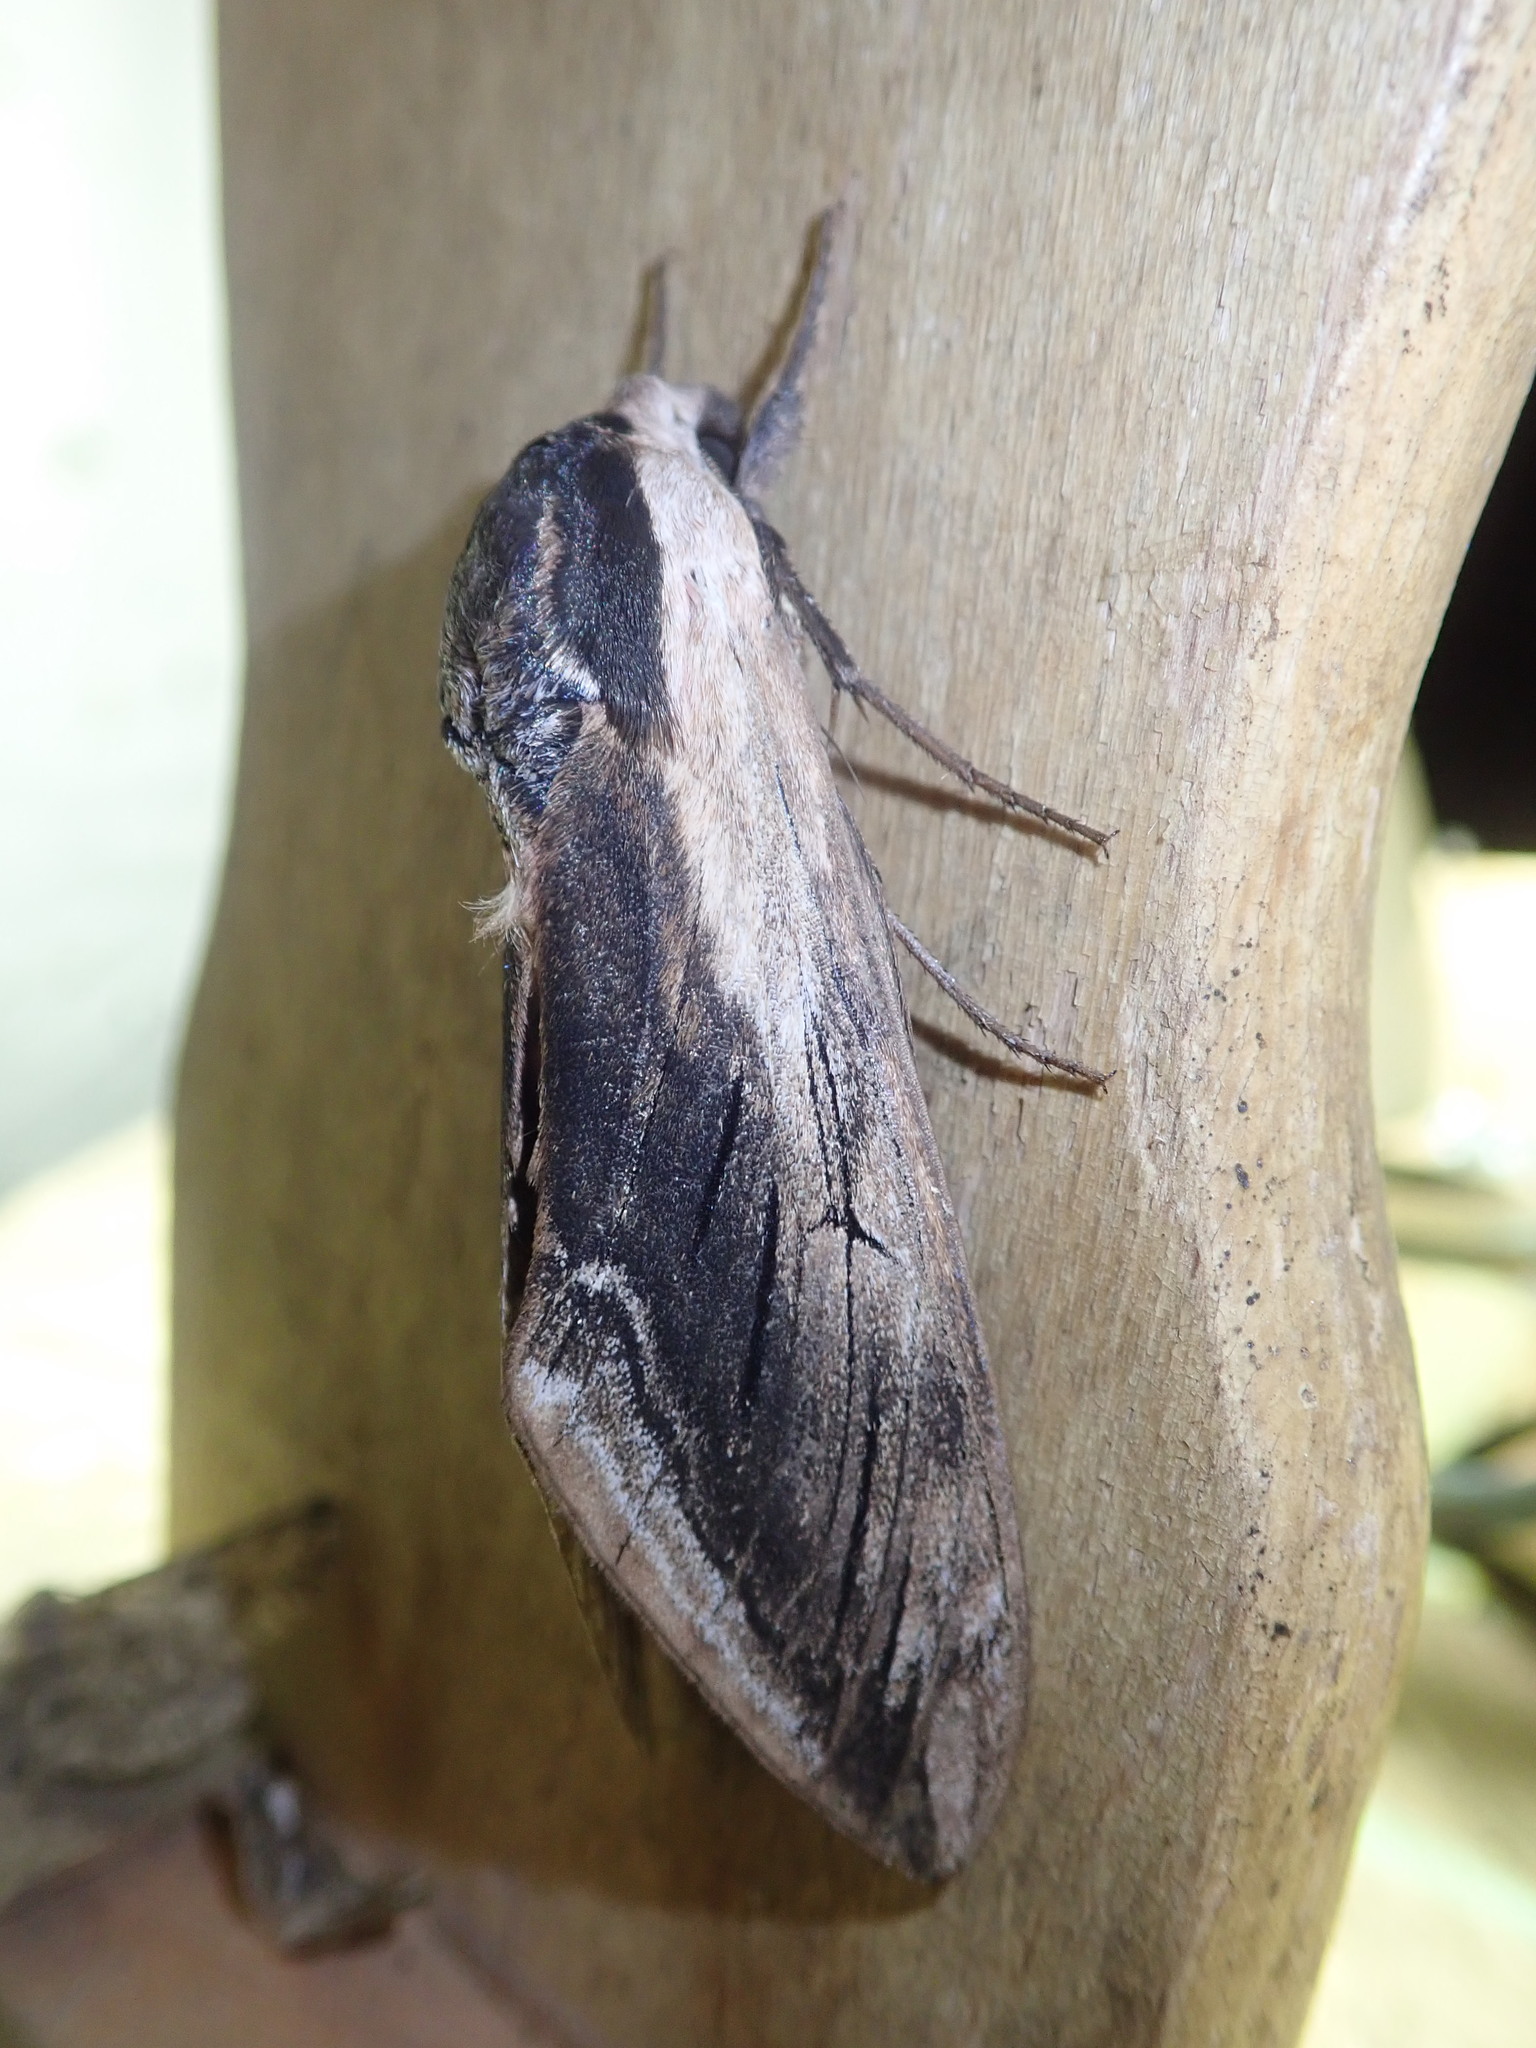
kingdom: Animalia
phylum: Arthropoda
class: Insecta
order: Lepidoptera
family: Sphingidae
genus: Sphinx
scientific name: Sphinx ligustri
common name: Privet hawk-moth
